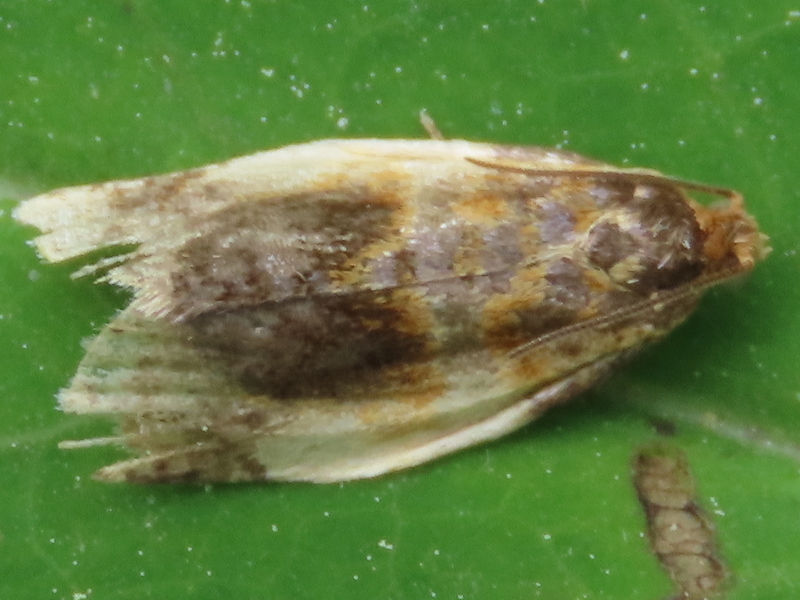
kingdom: Animalia
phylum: Arthropoda
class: Insecta
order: Lepidoptera
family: Tortricidae
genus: Clepsis
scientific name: Clepsis melaleucanus
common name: American apple tortrix
